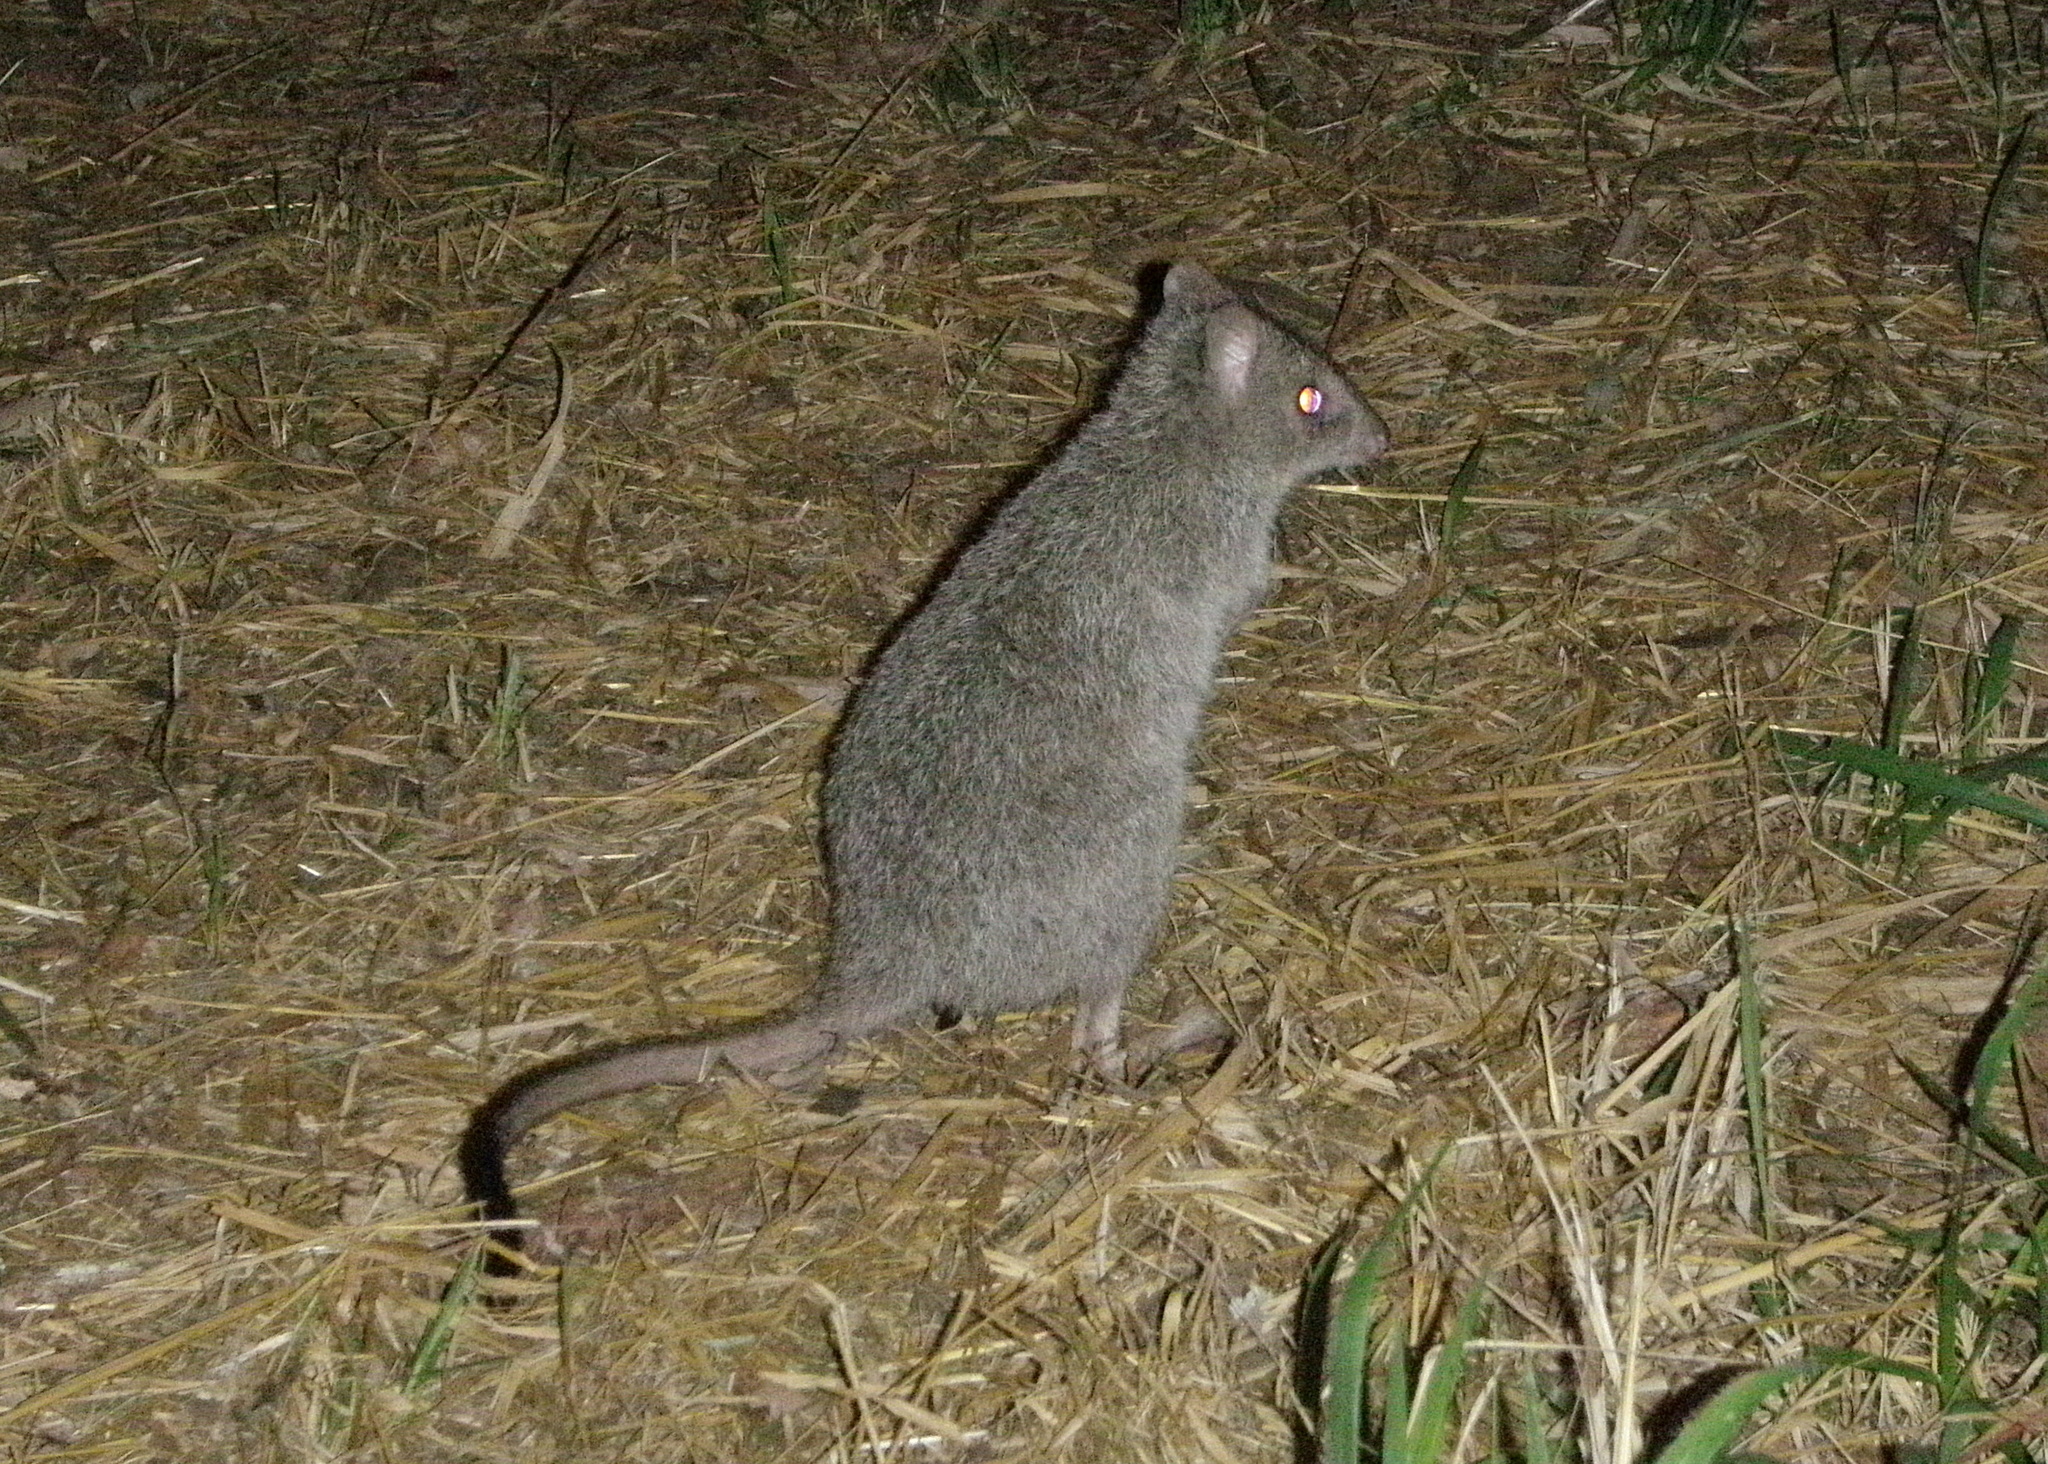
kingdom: Animalia
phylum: Chordata
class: Mammalia
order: Diprotodontia
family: Potoroidae
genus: Bettongia
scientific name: Bettongia tropica
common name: Northern bettong
